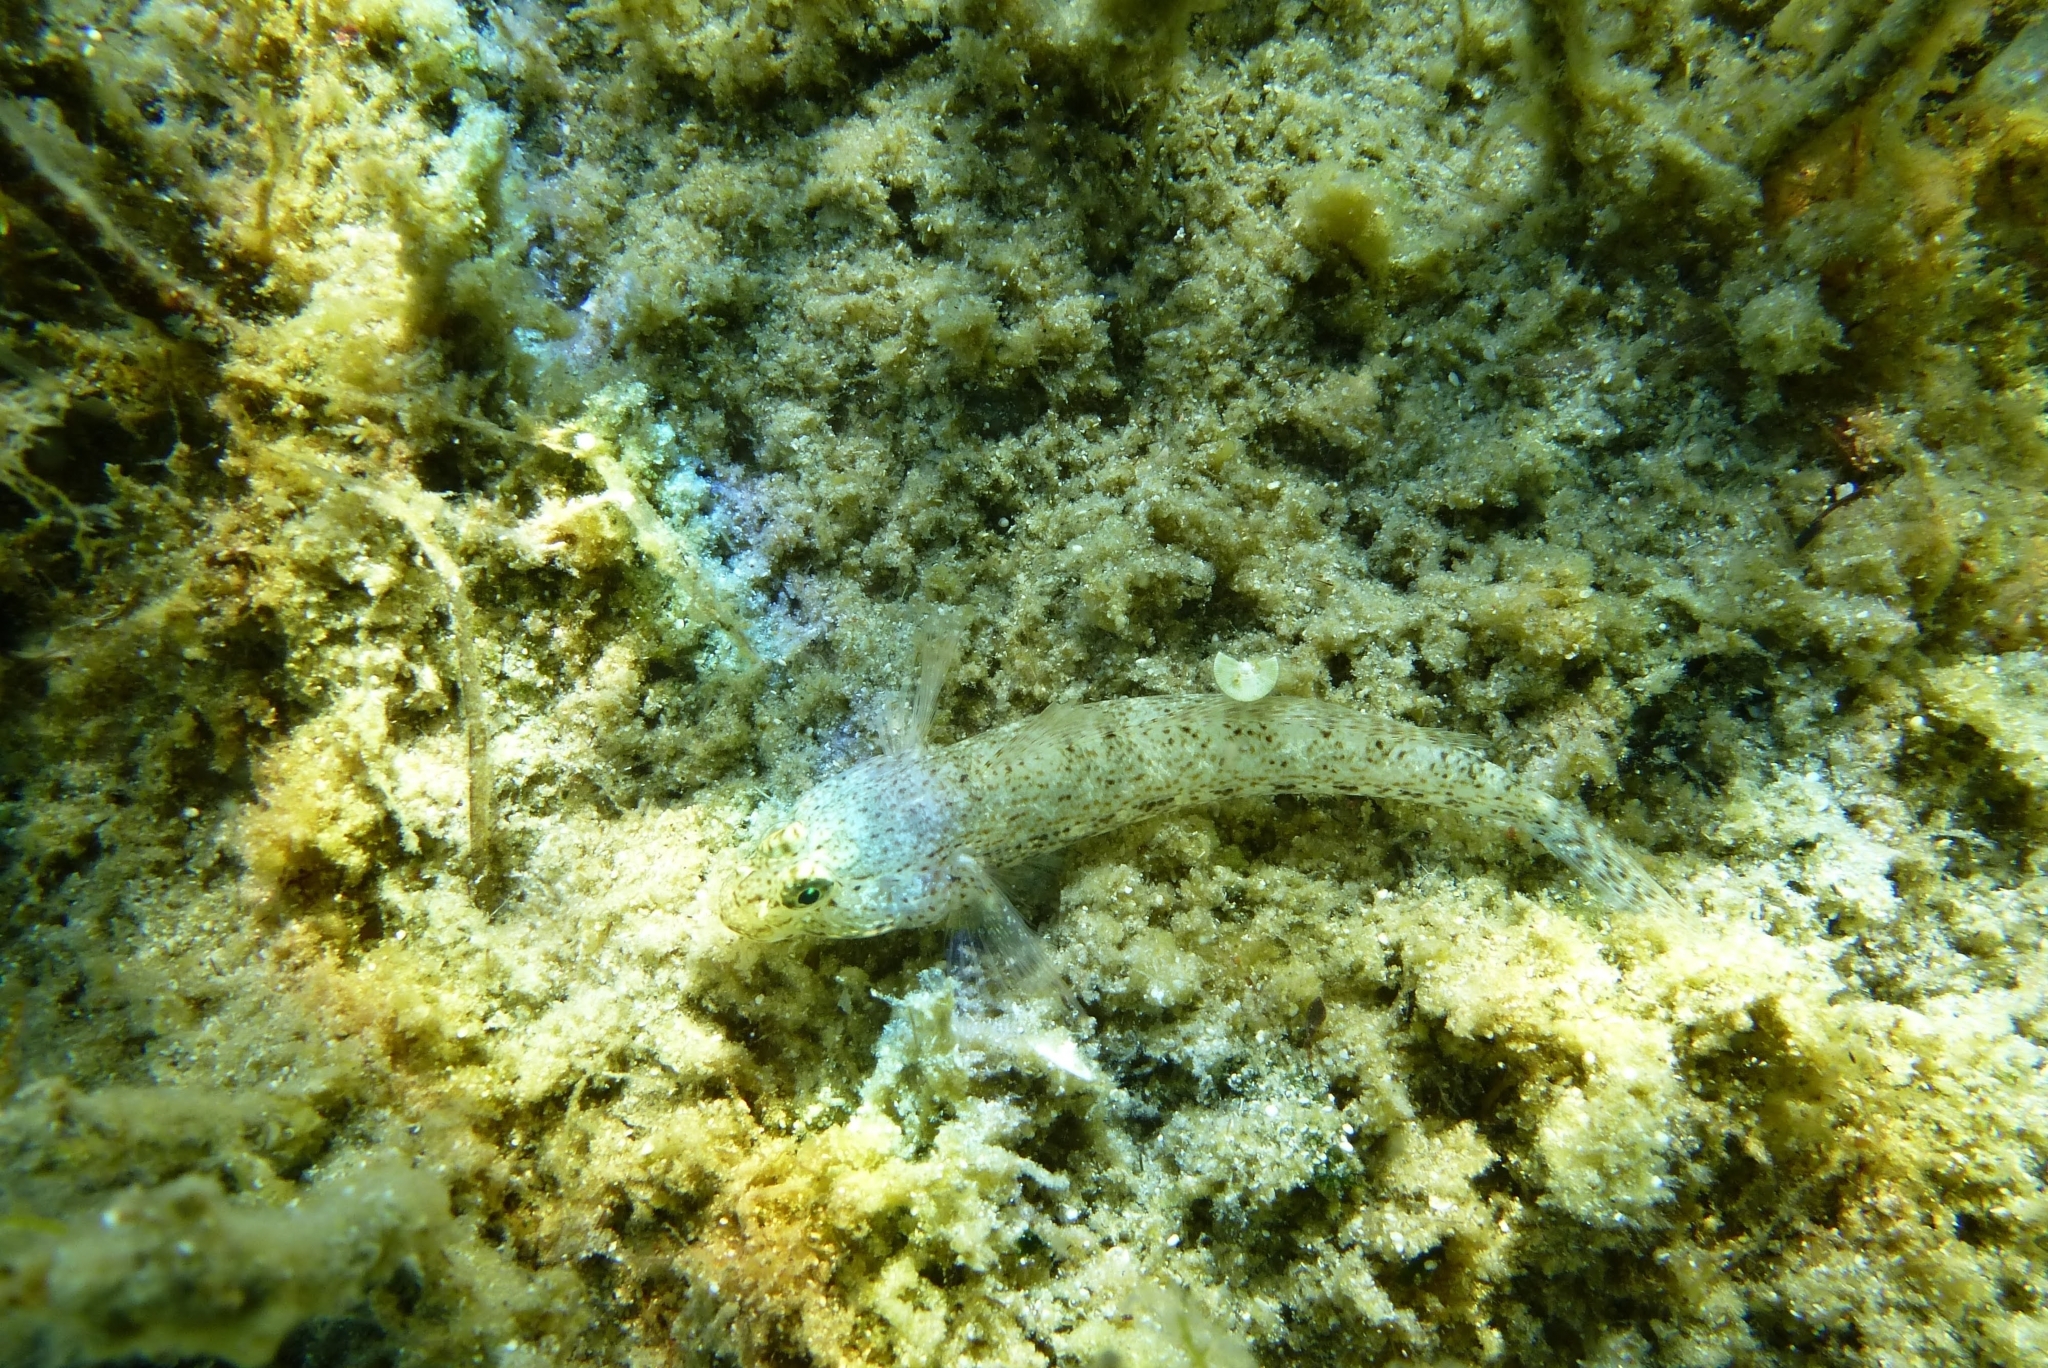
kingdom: Animalia
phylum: Chordata
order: Perciformes
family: Gobiidae
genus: Gobius
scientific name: Gobius incognitus
